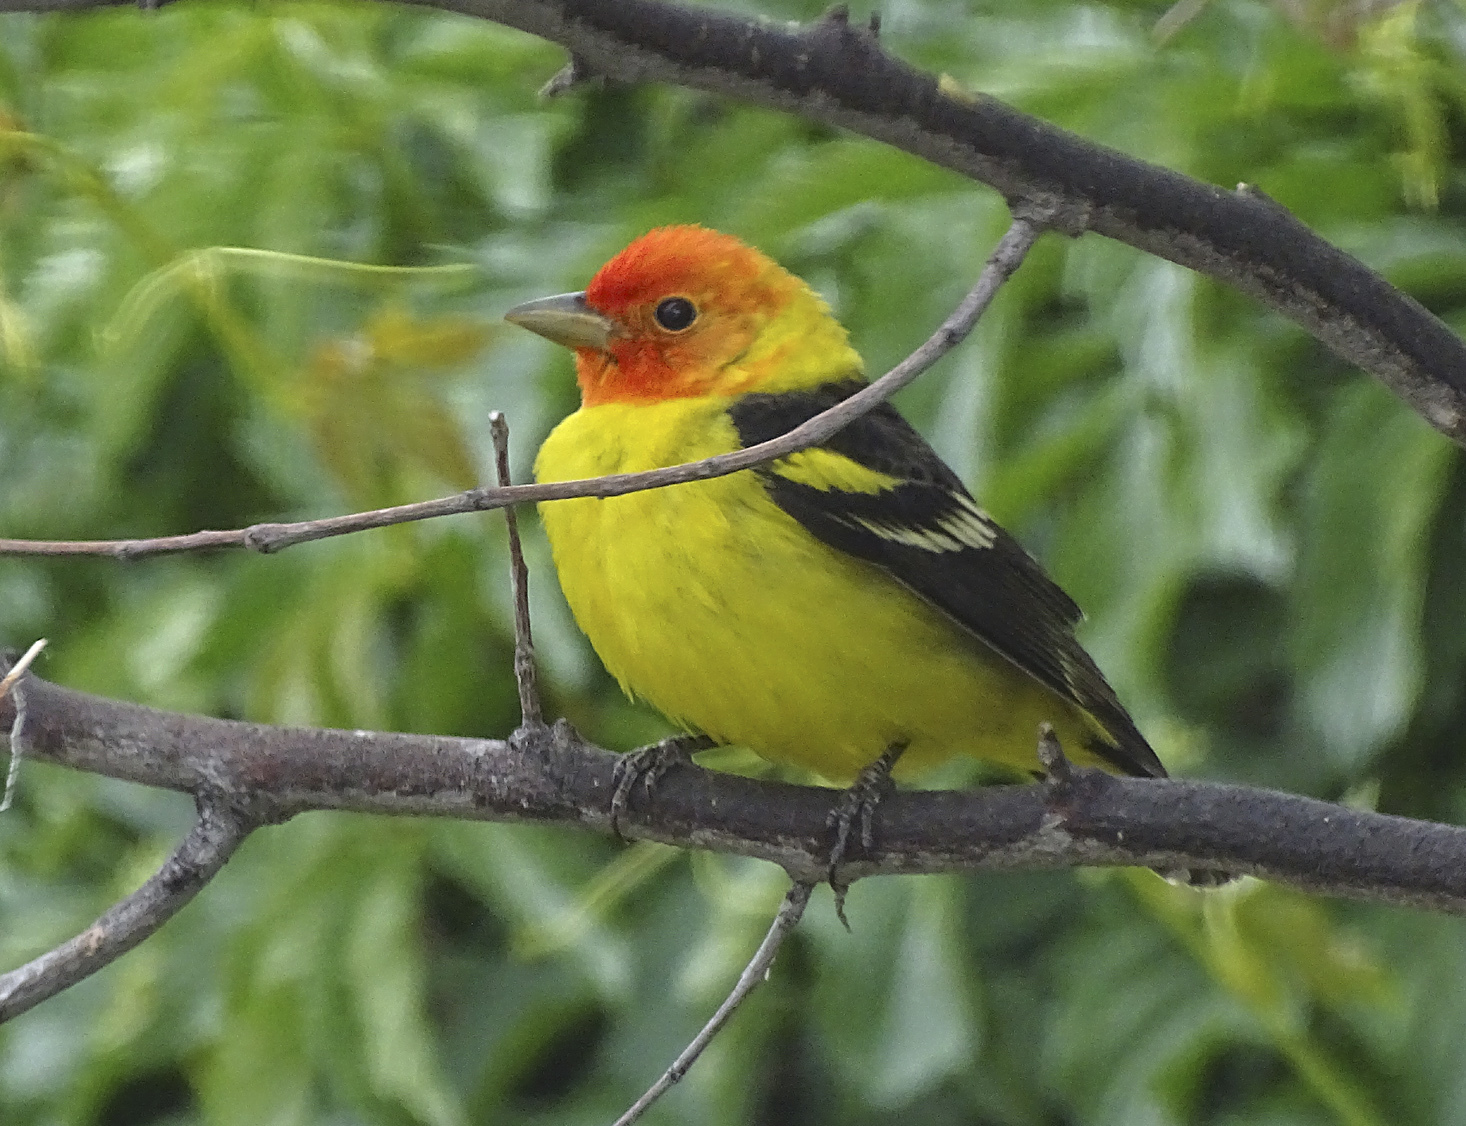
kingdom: Animalia
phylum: Chordata
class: Aves
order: Passeriformes
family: Cardinalidae
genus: Piranga
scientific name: Piranga ludoviciana
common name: Western tanager
